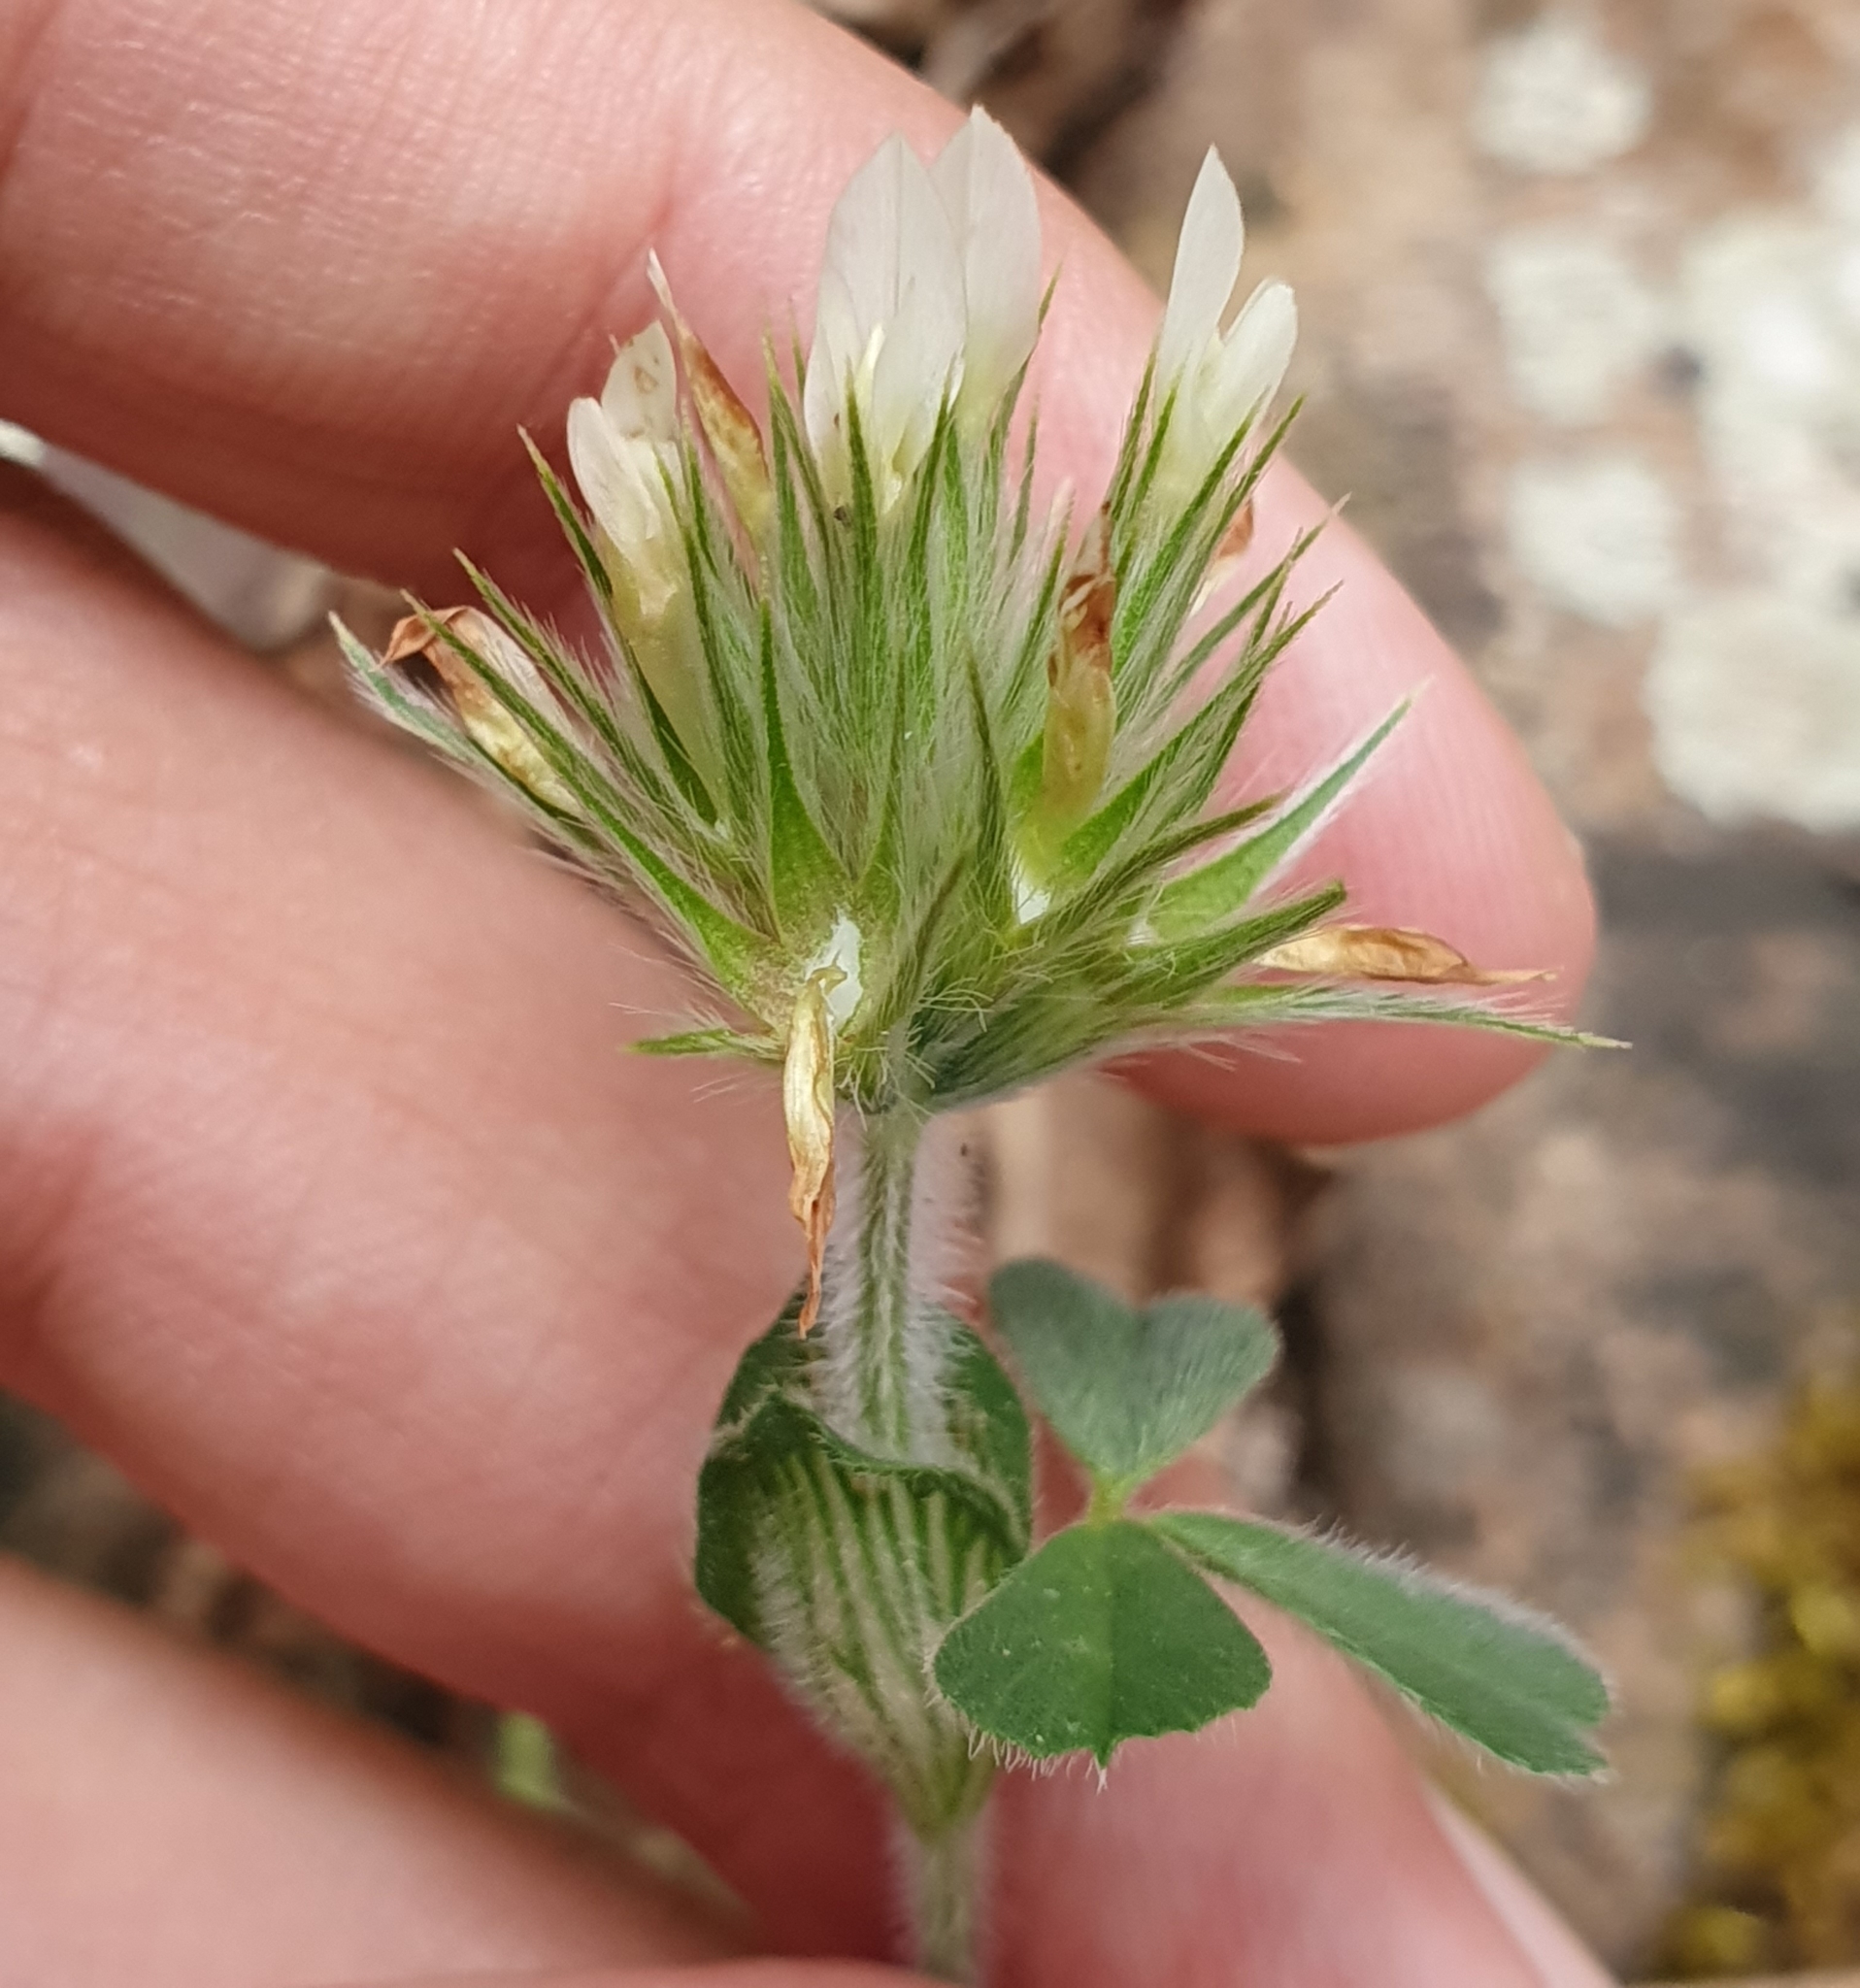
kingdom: Plantae
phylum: Tracheophyta
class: Magnoliopsida
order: Fabales
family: Fabaceae
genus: Trifolium
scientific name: Trifolium stellatum
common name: Starry clover
